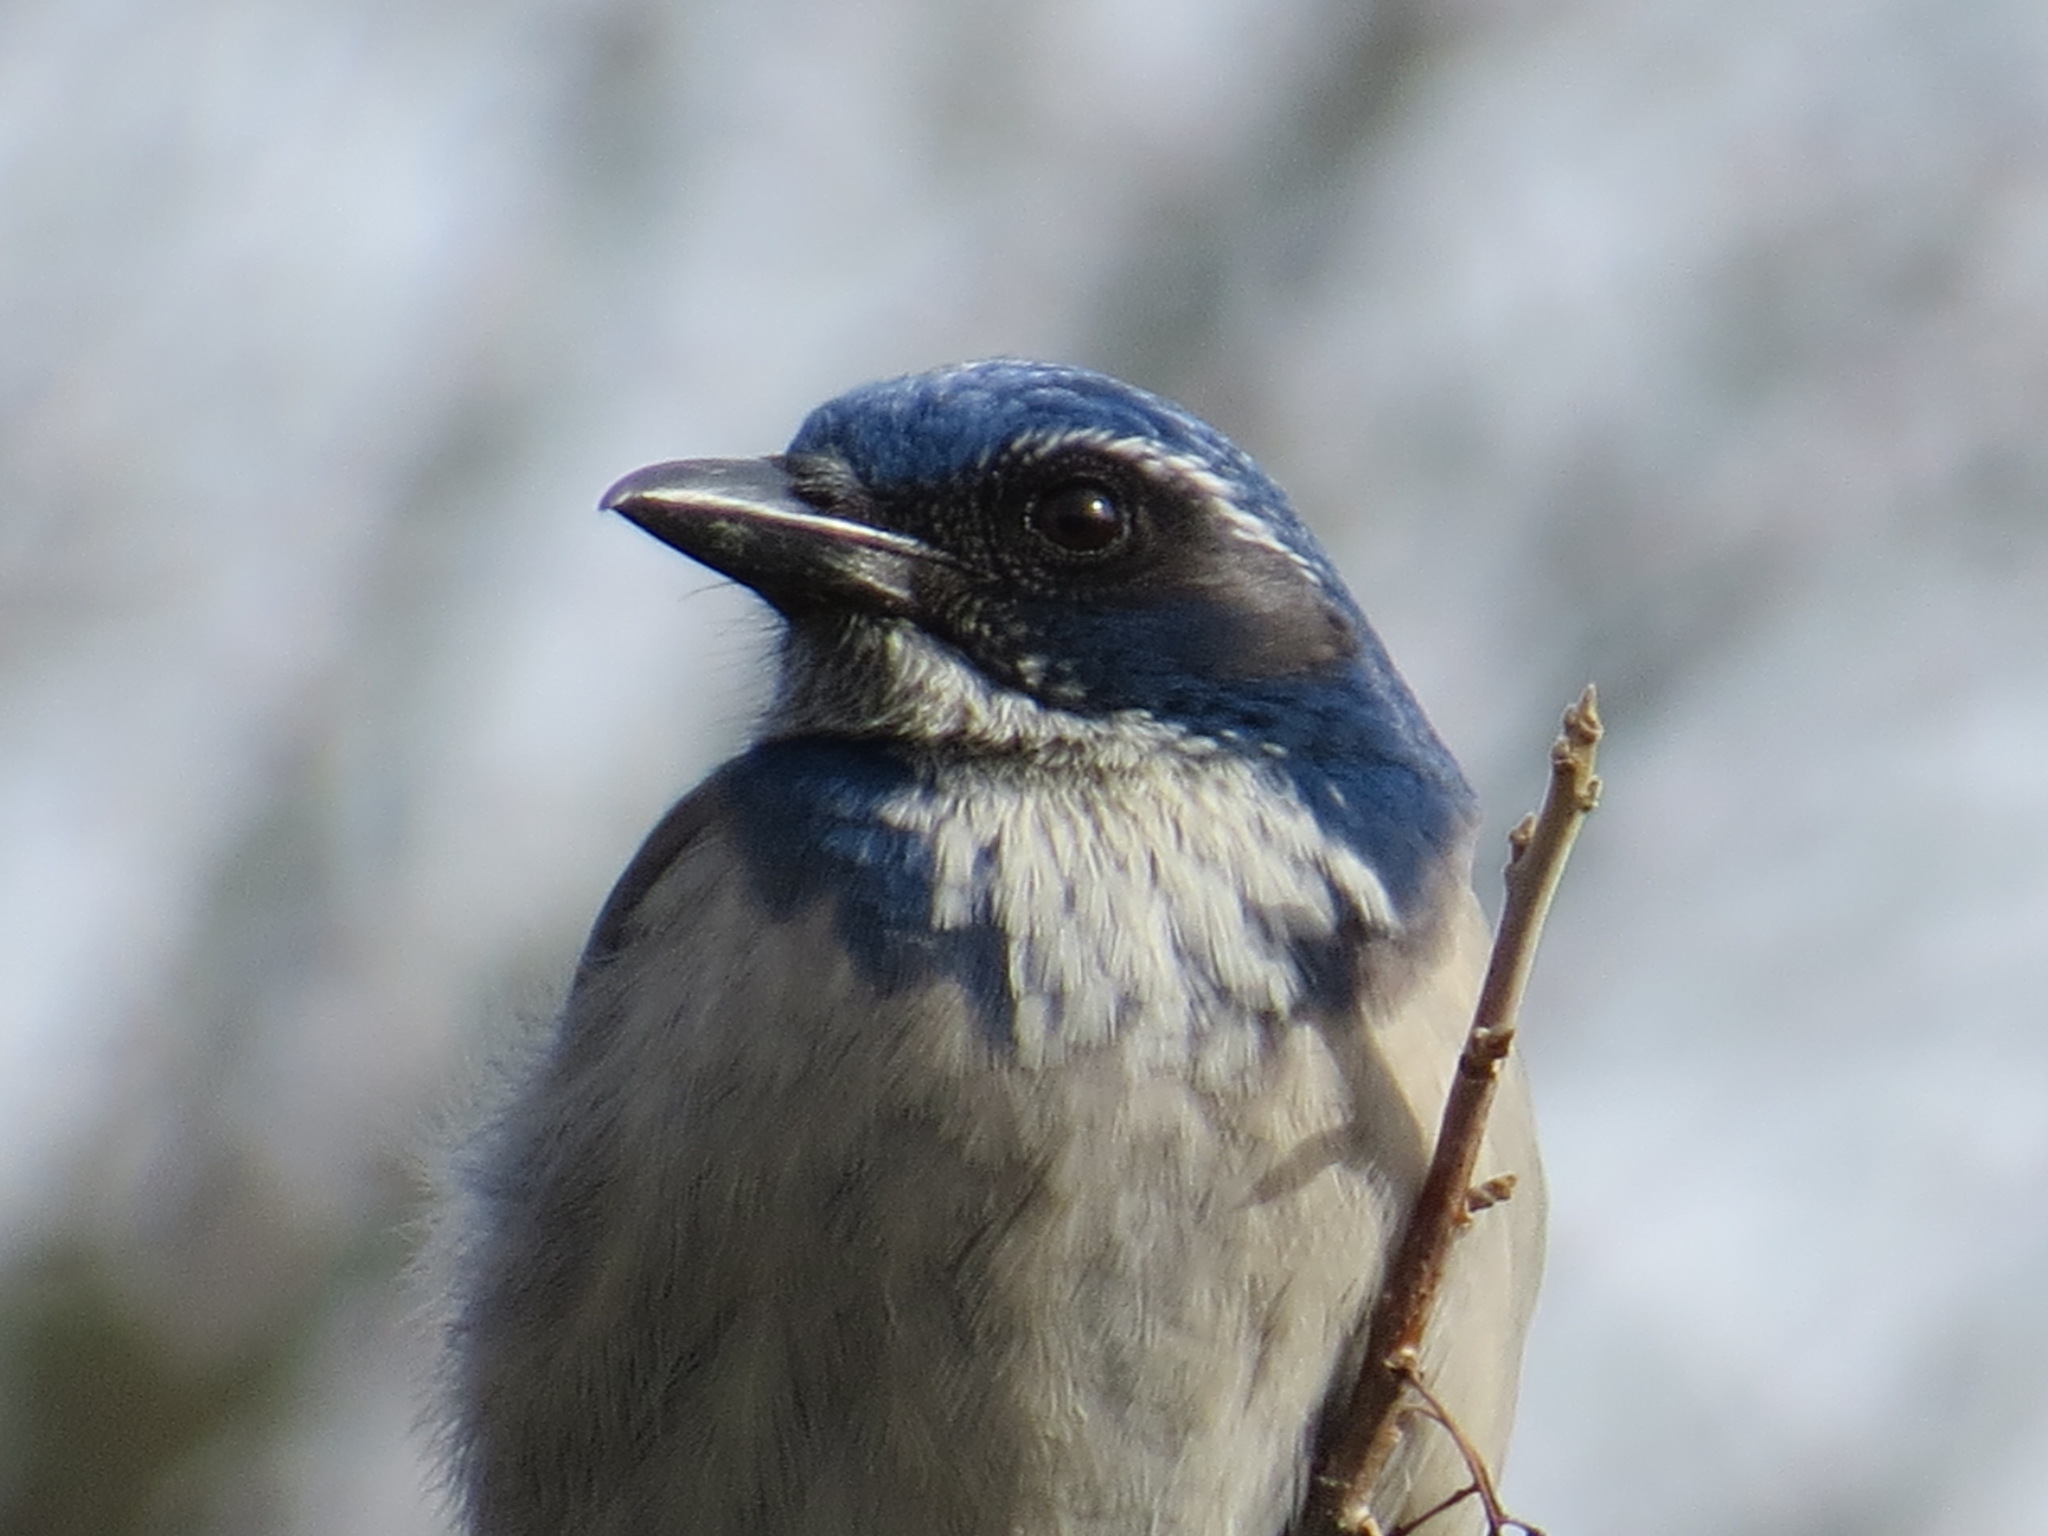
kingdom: Animalia
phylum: Chordata
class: Aves
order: Passeriformes
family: Corvidae
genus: Aphelocoma
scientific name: Aphelocoma californica
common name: California scrub-jay
